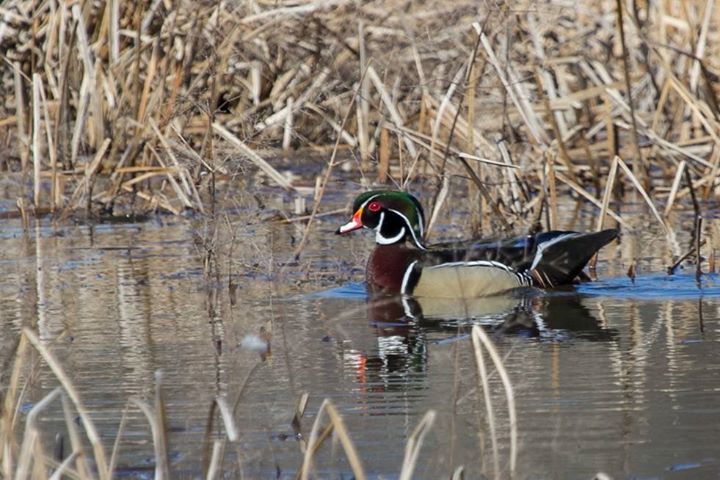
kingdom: Animalia
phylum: Chordata
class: Aves
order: Anseriformes
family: Anatidae
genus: Aix
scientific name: Aix sponsa
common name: Wood duck
